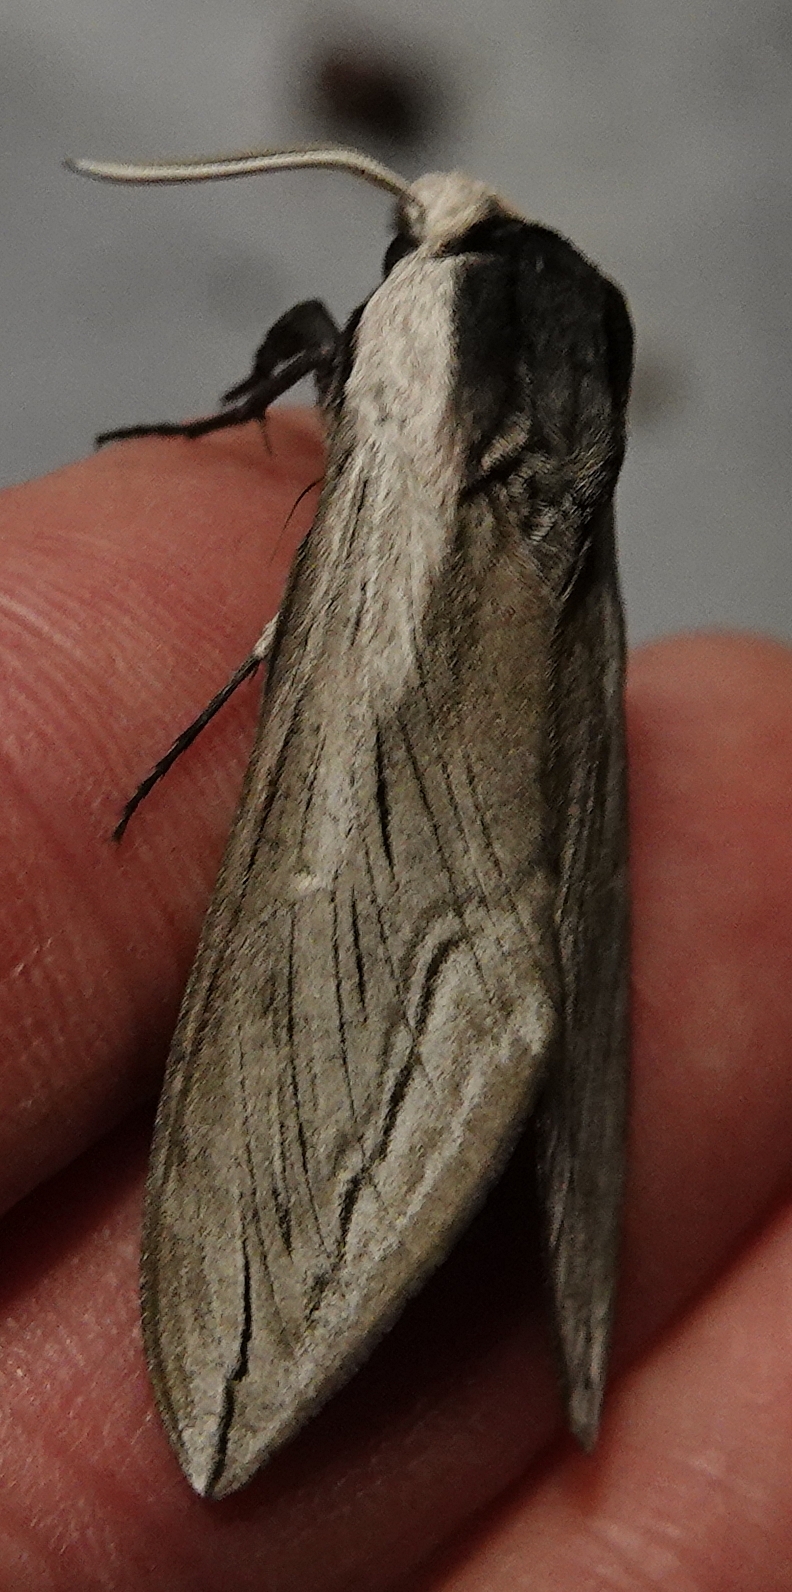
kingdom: Animalia
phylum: Arthropoda
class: Insecta
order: Lepidoptera
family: Sphingidae
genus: Sphinx
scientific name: Sphinx vashti
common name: Snowberry sphinx
